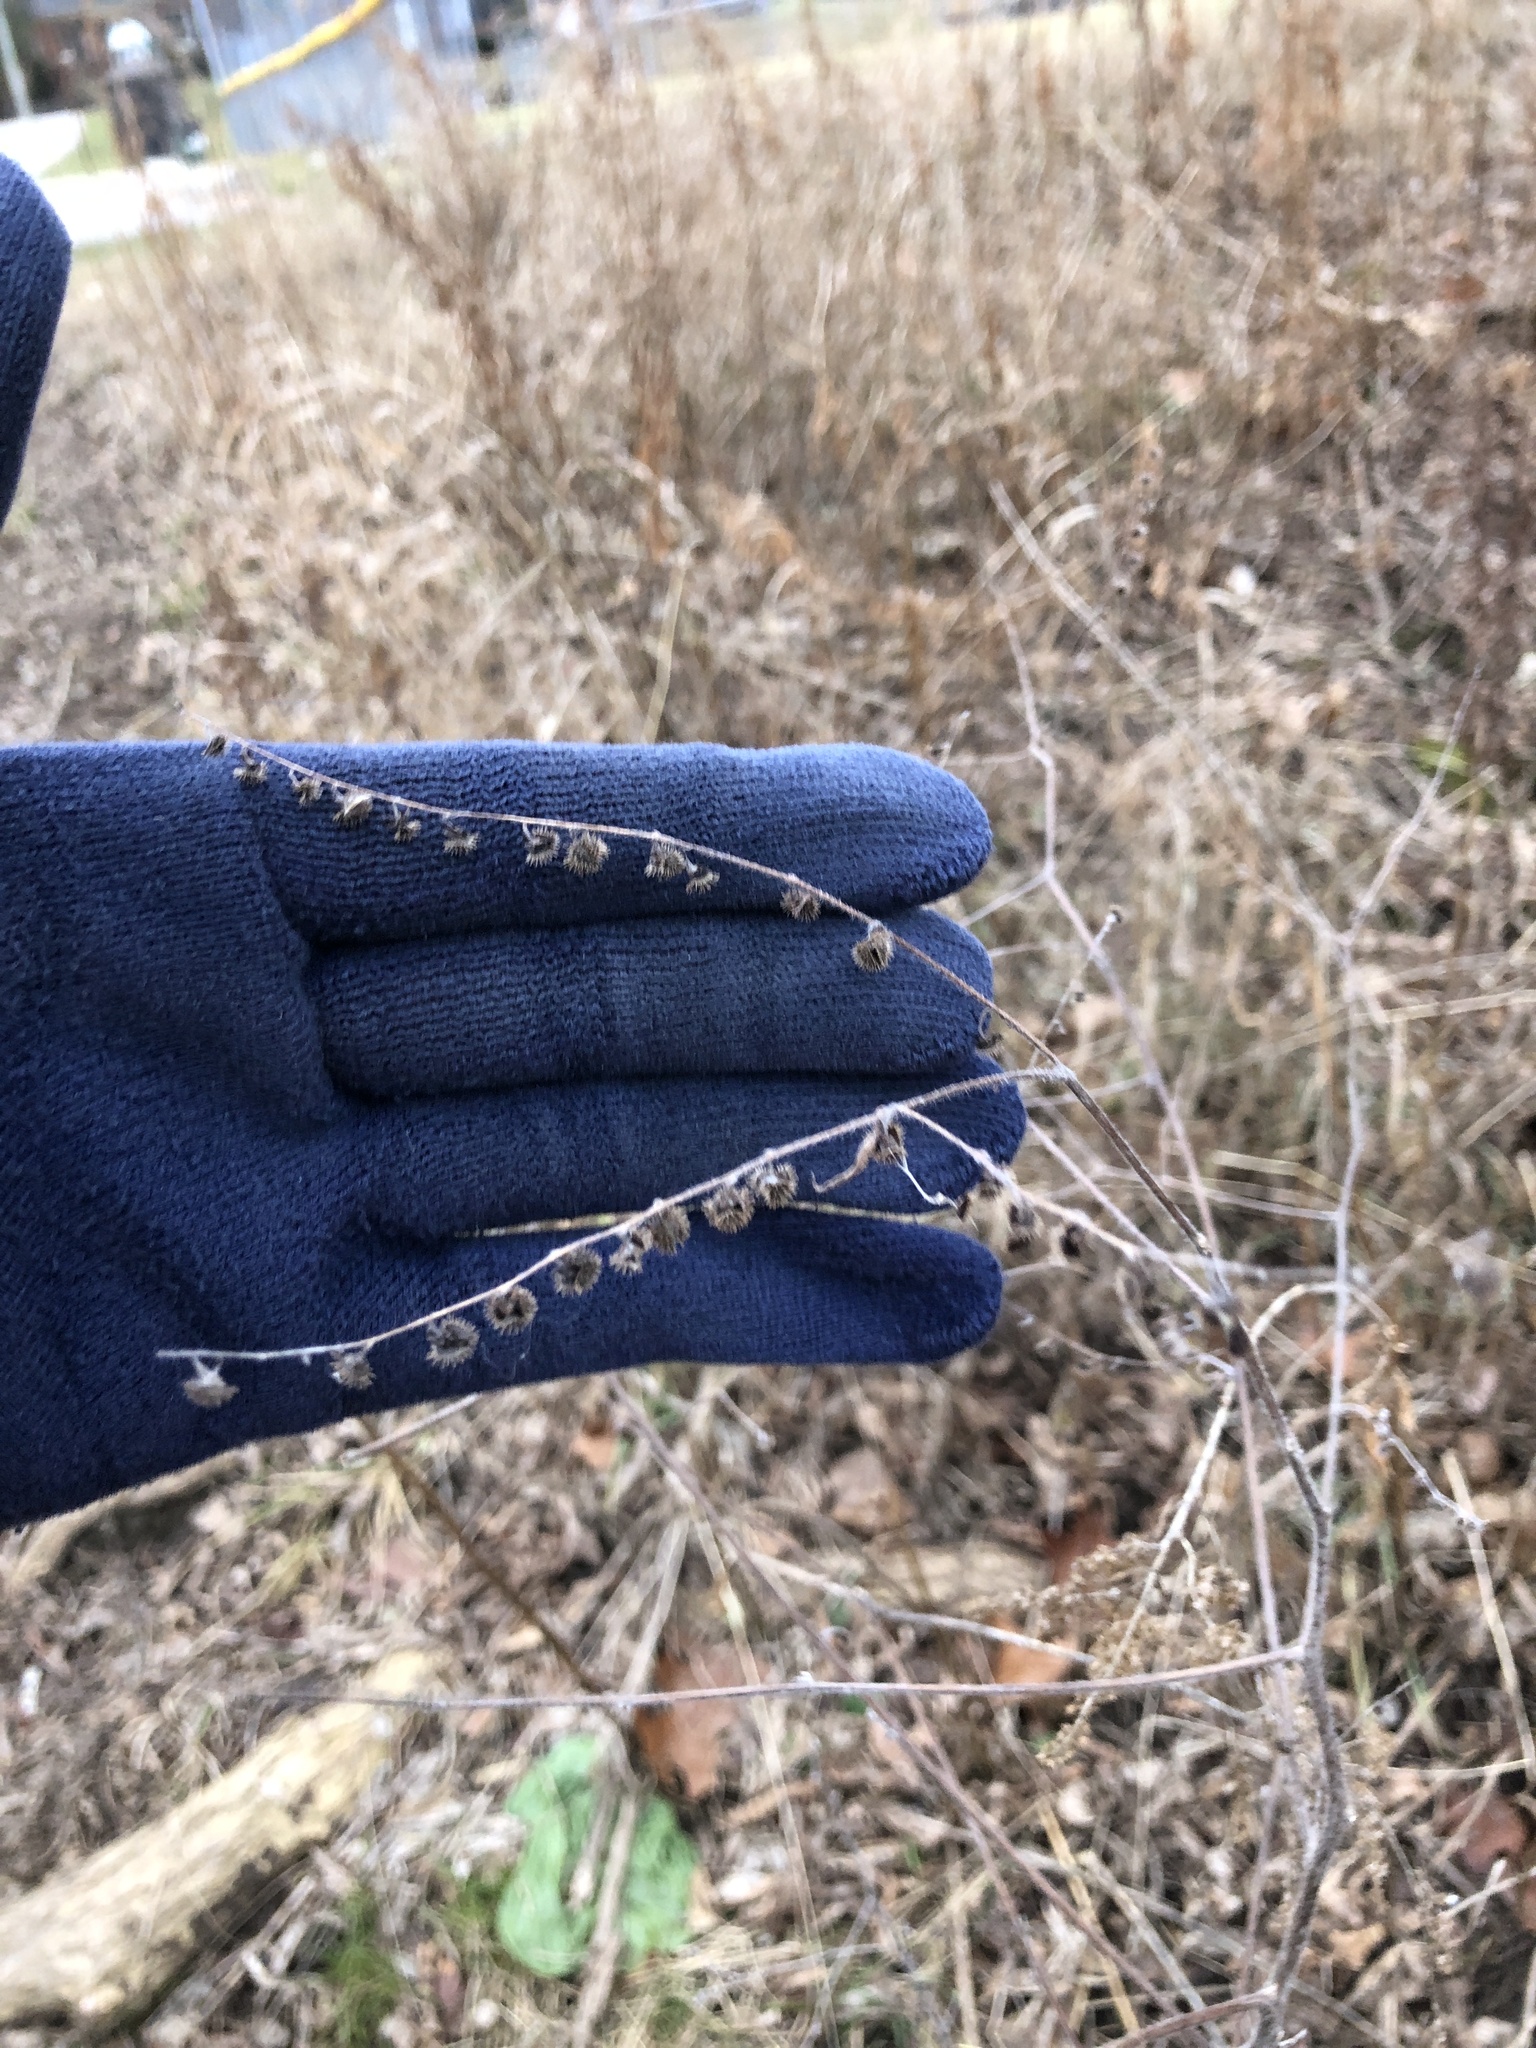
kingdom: Plantae
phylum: Tracheophyta
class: Magnoliopsida
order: Boraginales
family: Boraginaceae
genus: Hackelia
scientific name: Hackelia virginiana
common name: Beggar's-lice
